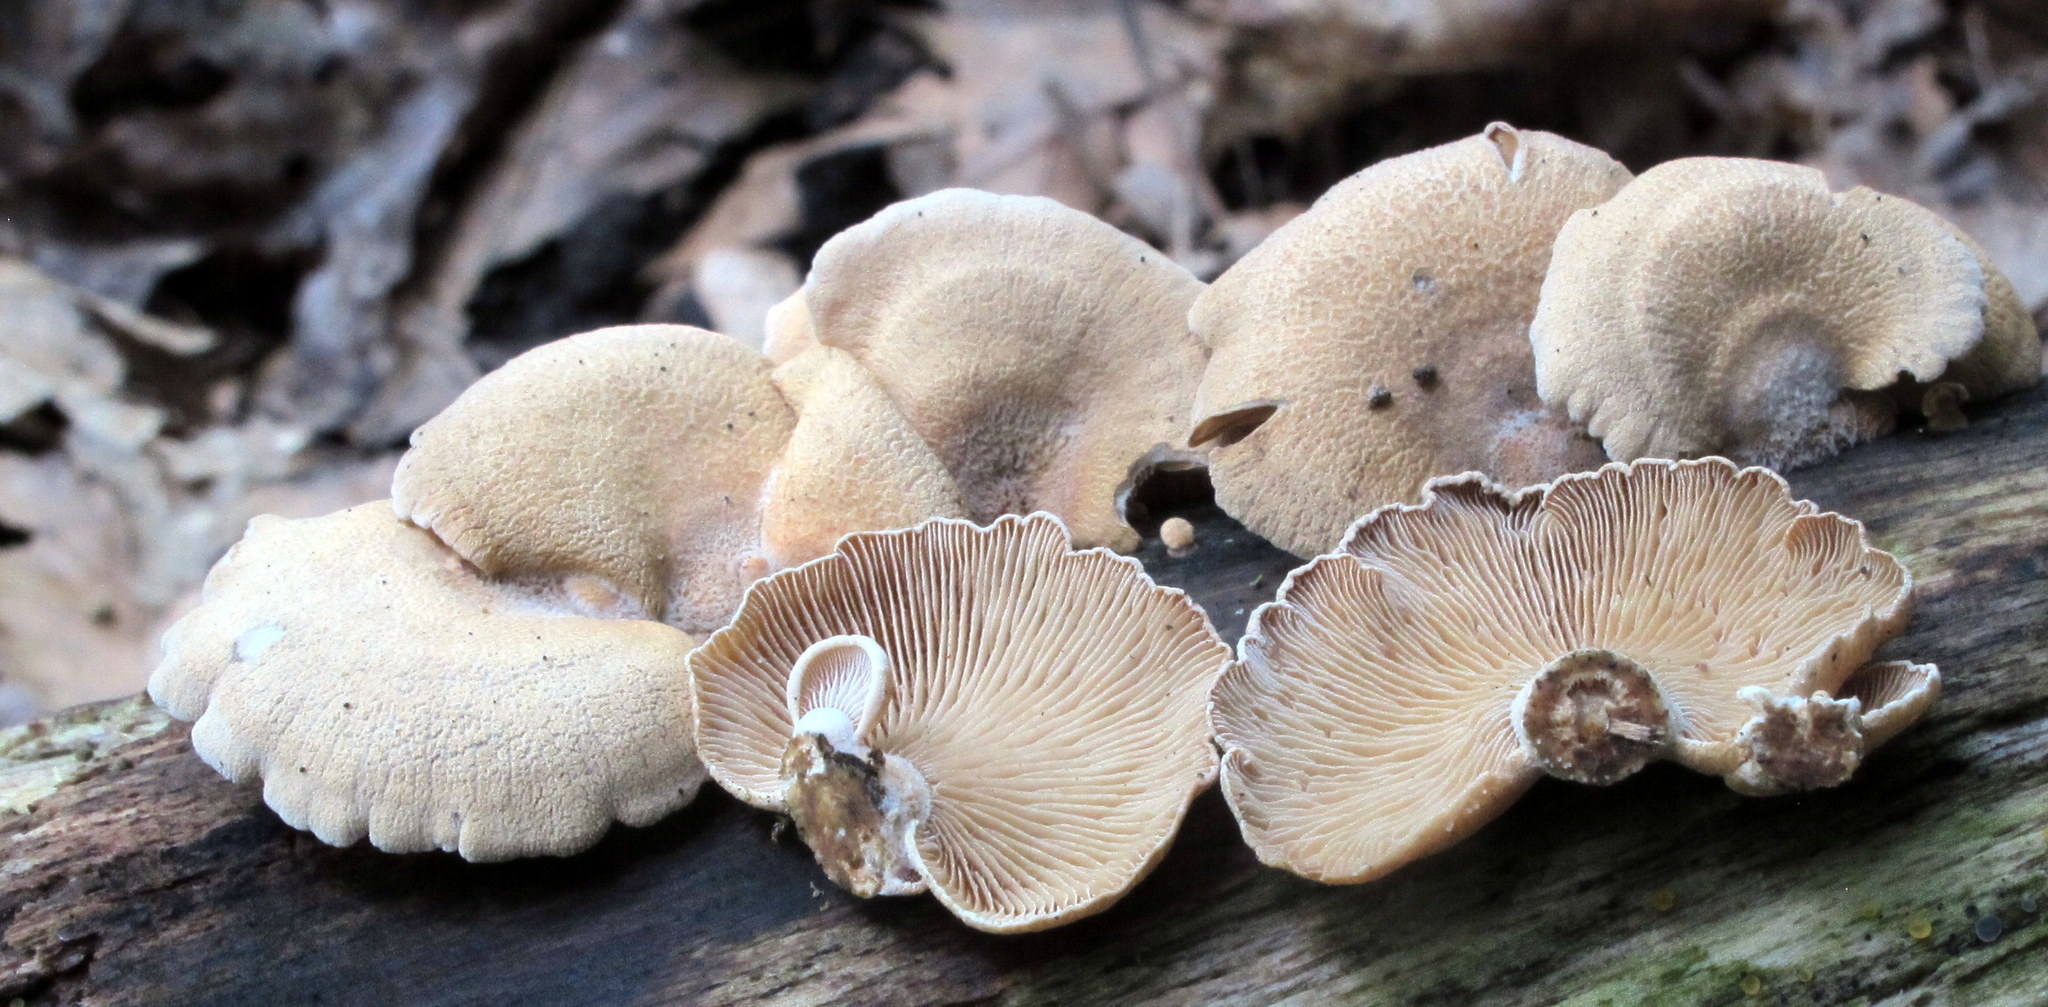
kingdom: Fungi
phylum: Basidiomycota
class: Agaricomycetes
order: Agaricales
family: Mycenaceae
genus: Panellus
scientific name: Panellus stipticus
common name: Bitter oysterling
